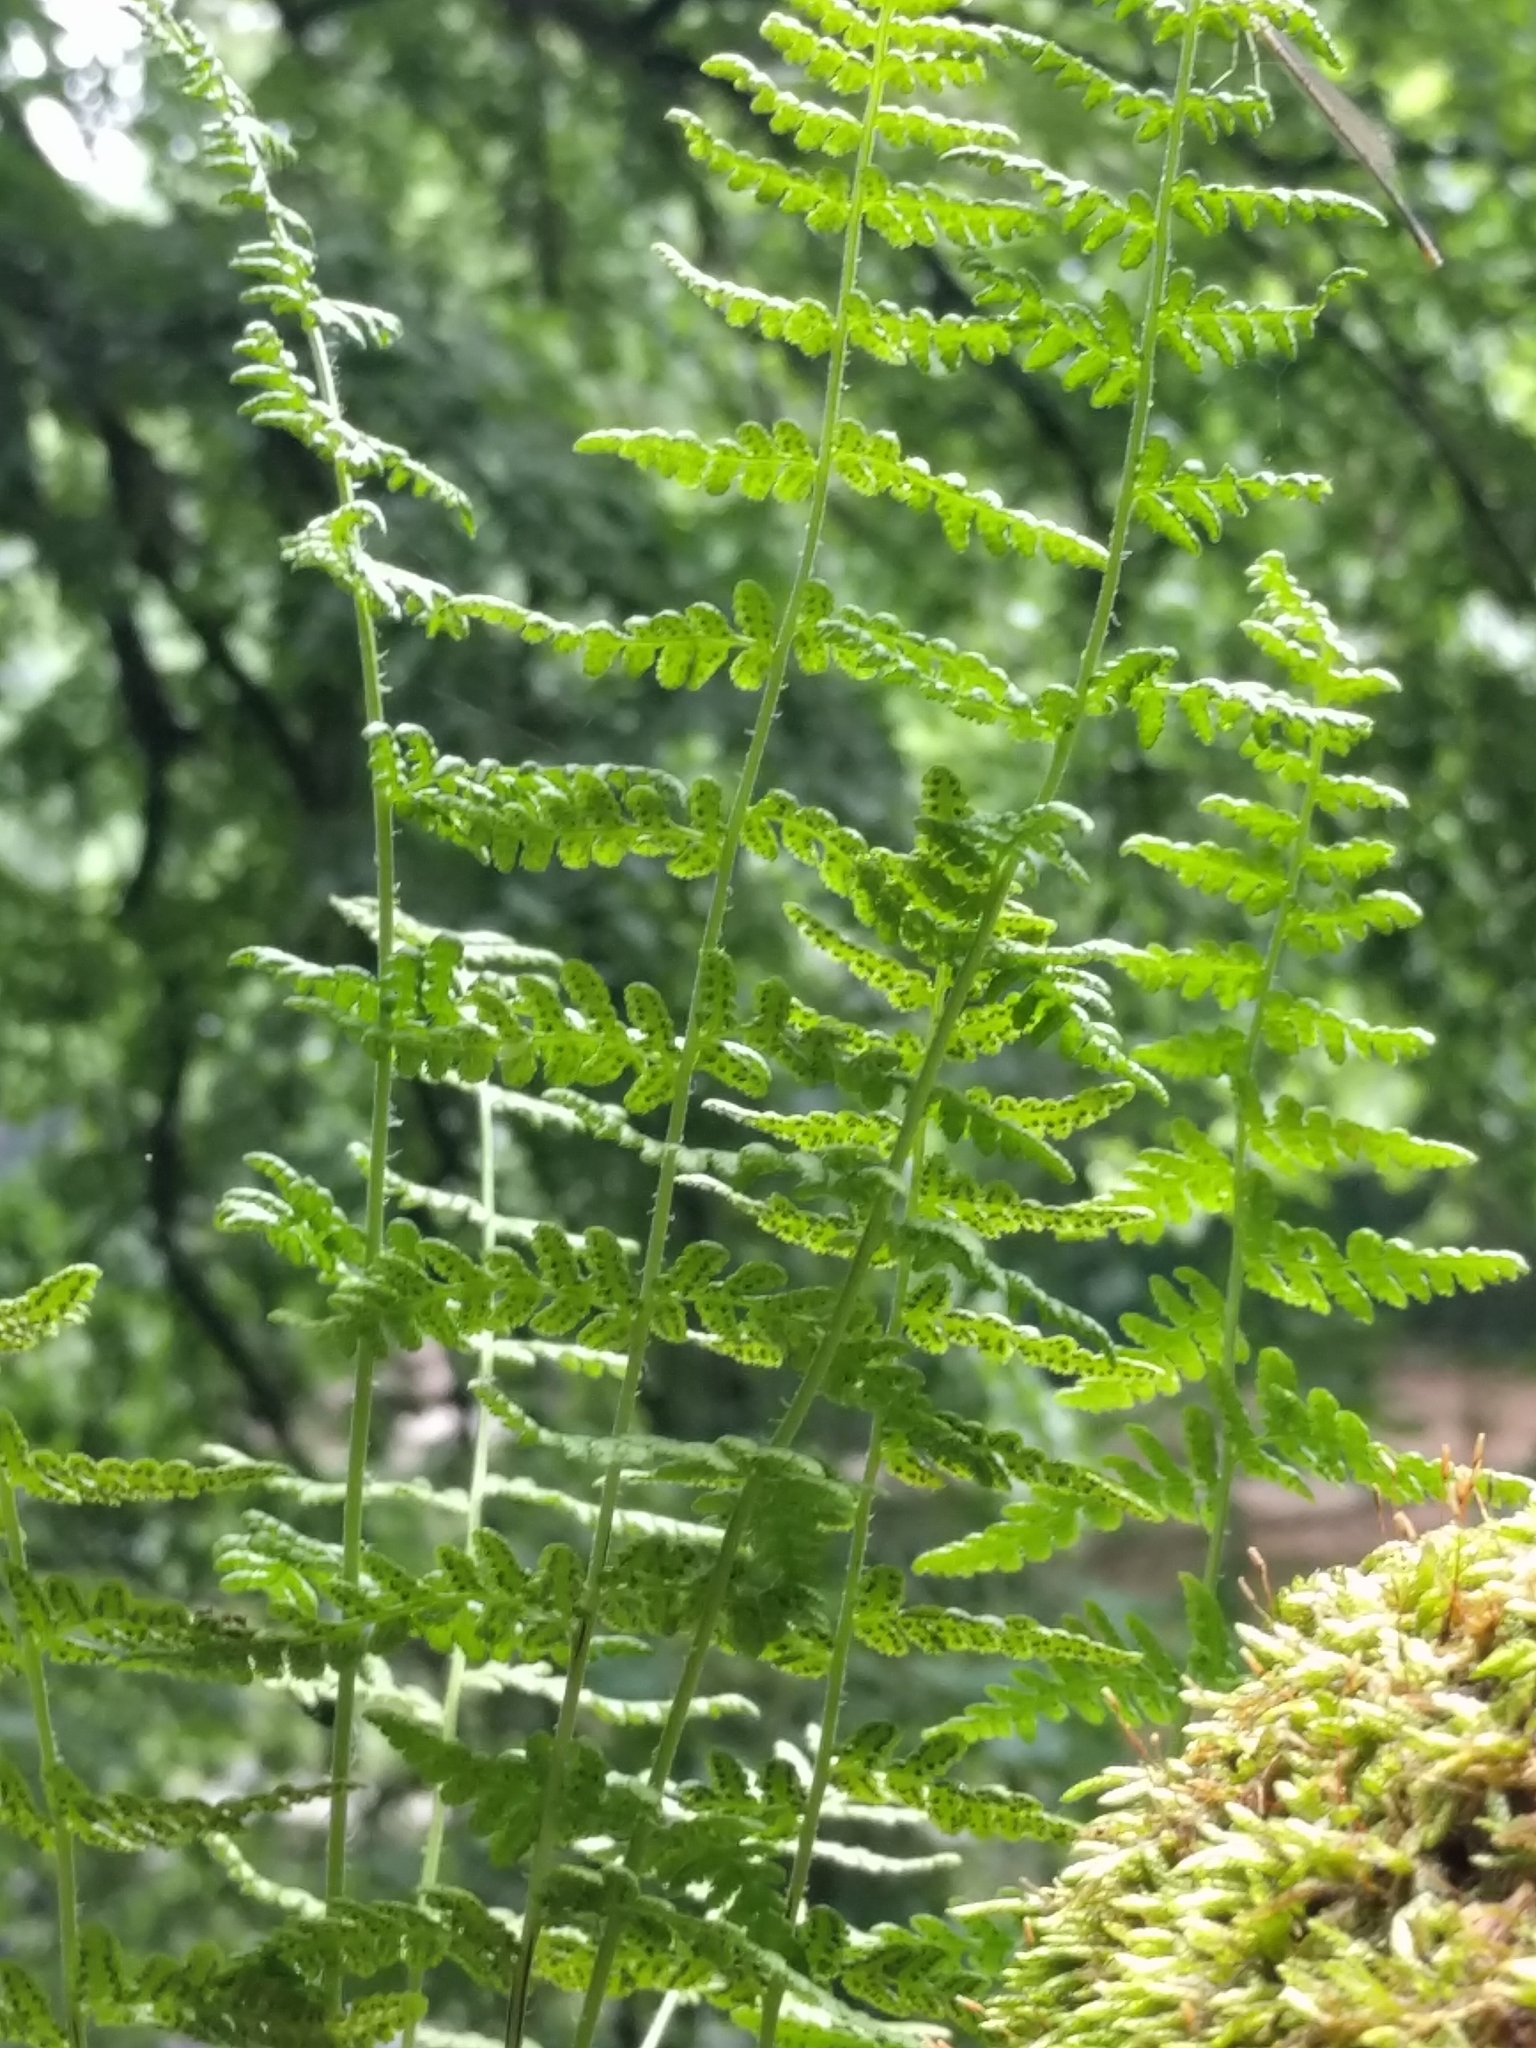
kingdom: Plantae
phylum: Tracheophyta
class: Polypodiopsida
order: Polypodiales
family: Woodsiaceae
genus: Physematium
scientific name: Physematium obtusum
